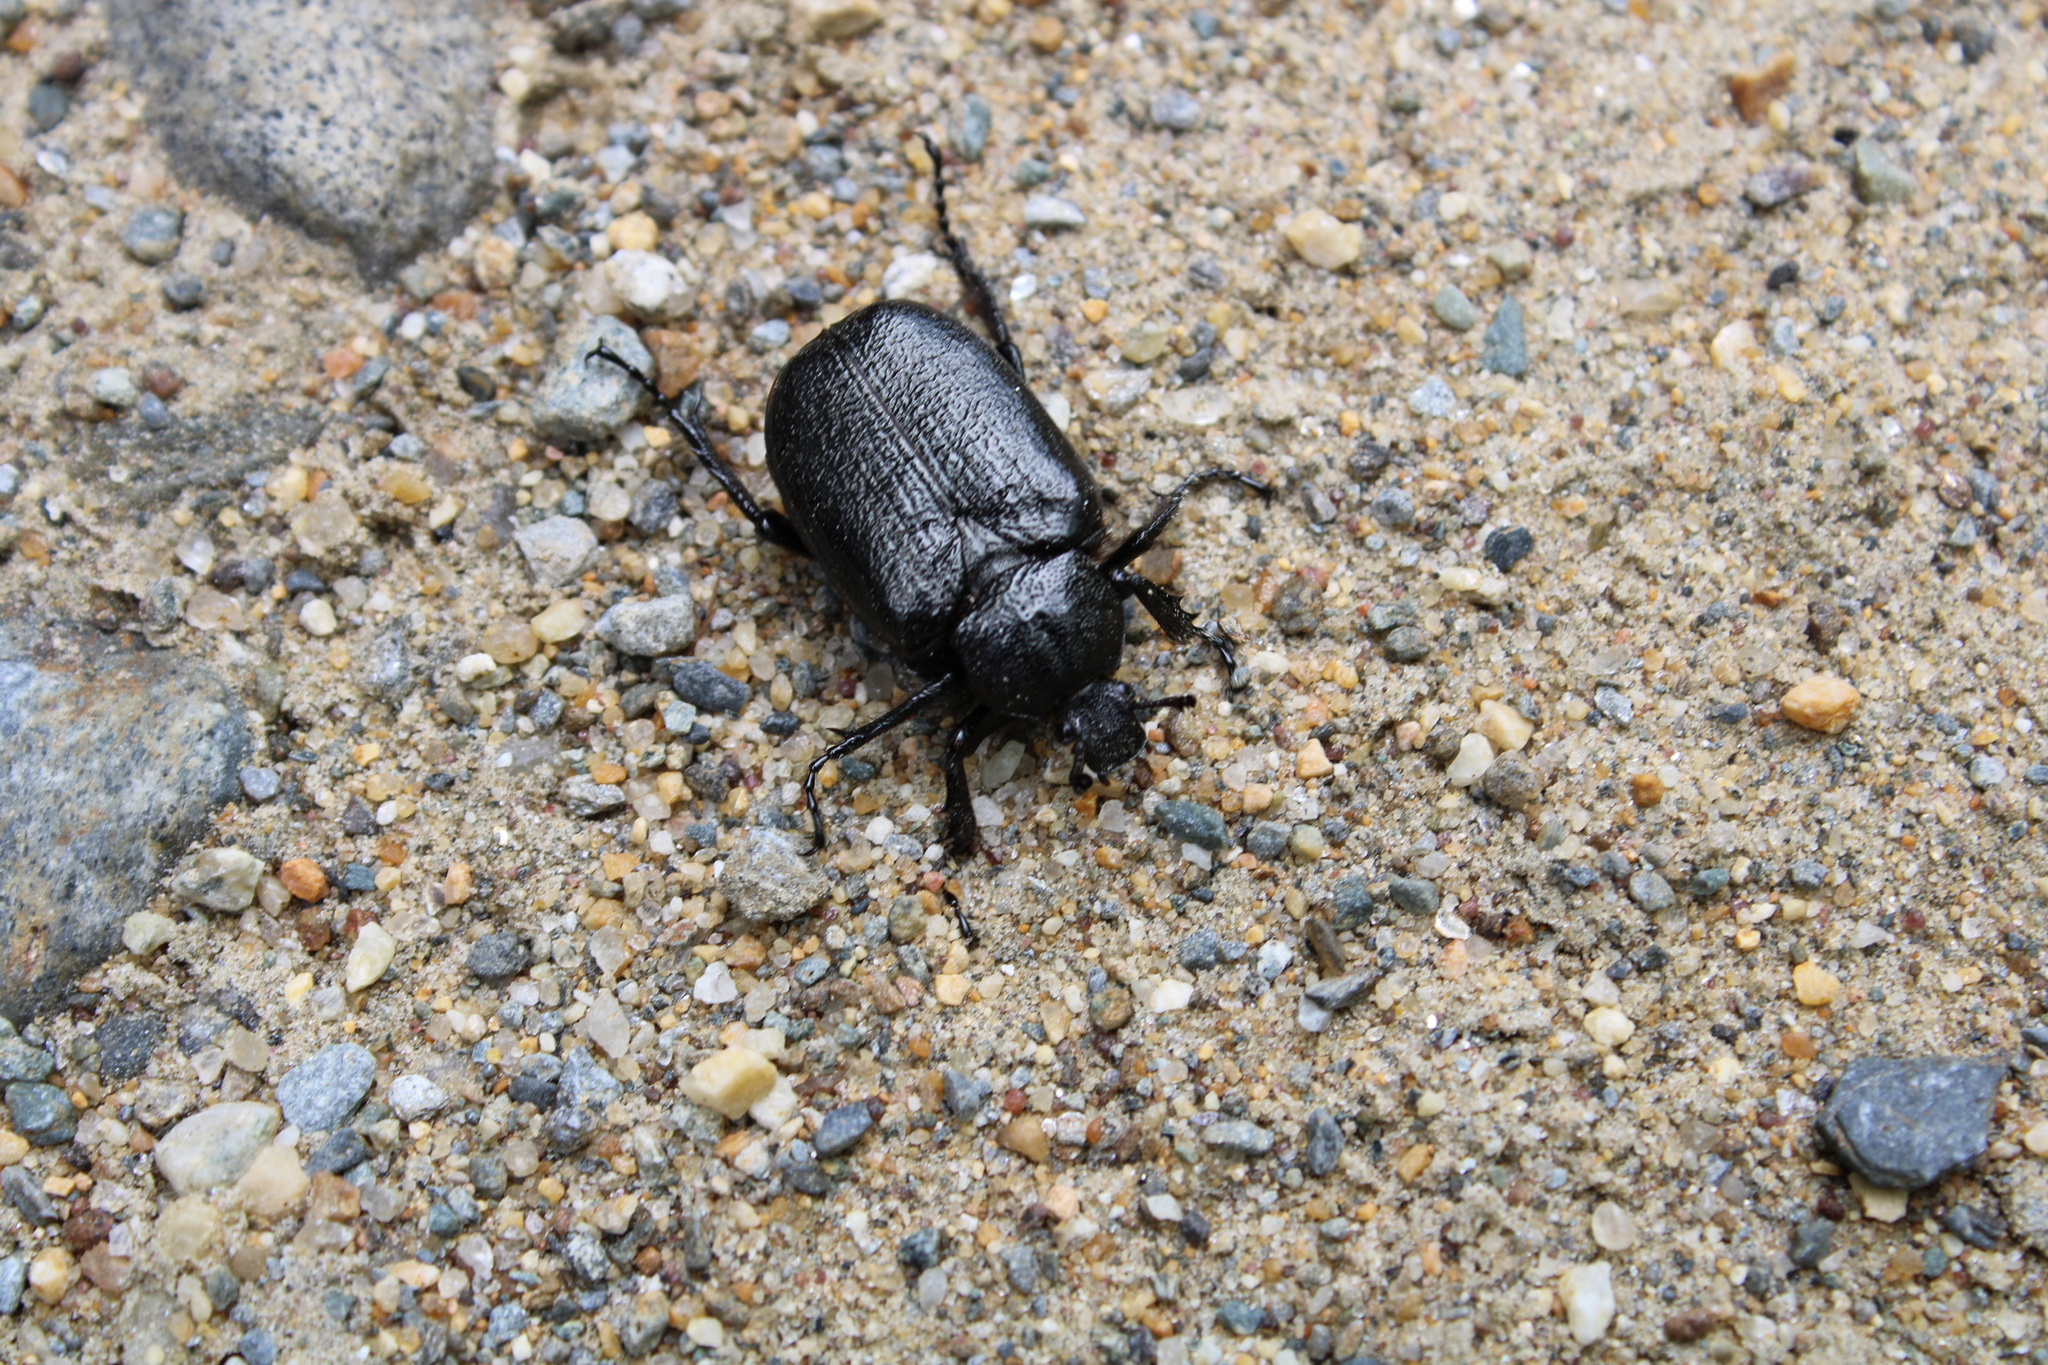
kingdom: Animalia
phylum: Arthropoda
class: Insecta
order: Coleoptera
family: Scarabaeidae
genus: Osmoderma
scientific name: Osmoderma scabra
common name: Rough hermit beetle
